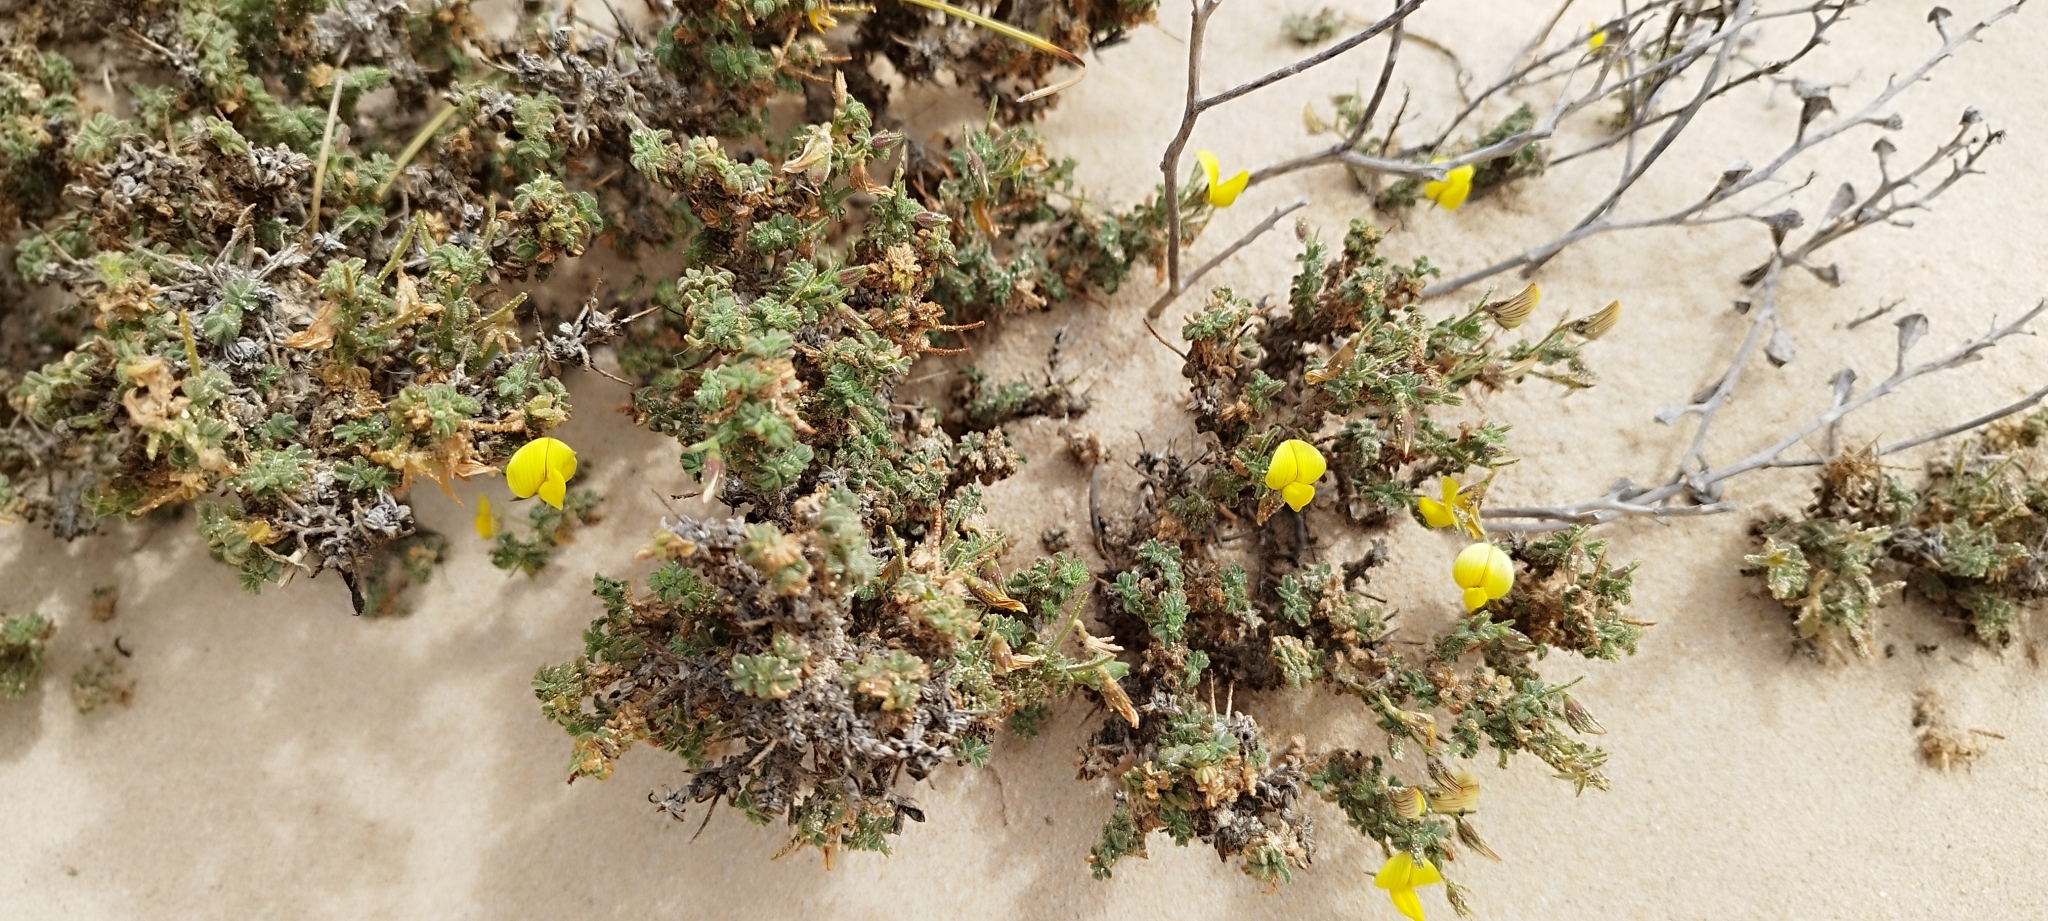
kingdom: Plantae
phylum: Tracheophyta
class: Magnoliopsida
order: Fabales
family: Fabaceae
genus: Ononis
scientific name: Ononis natrix
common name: Yellow restharrow
